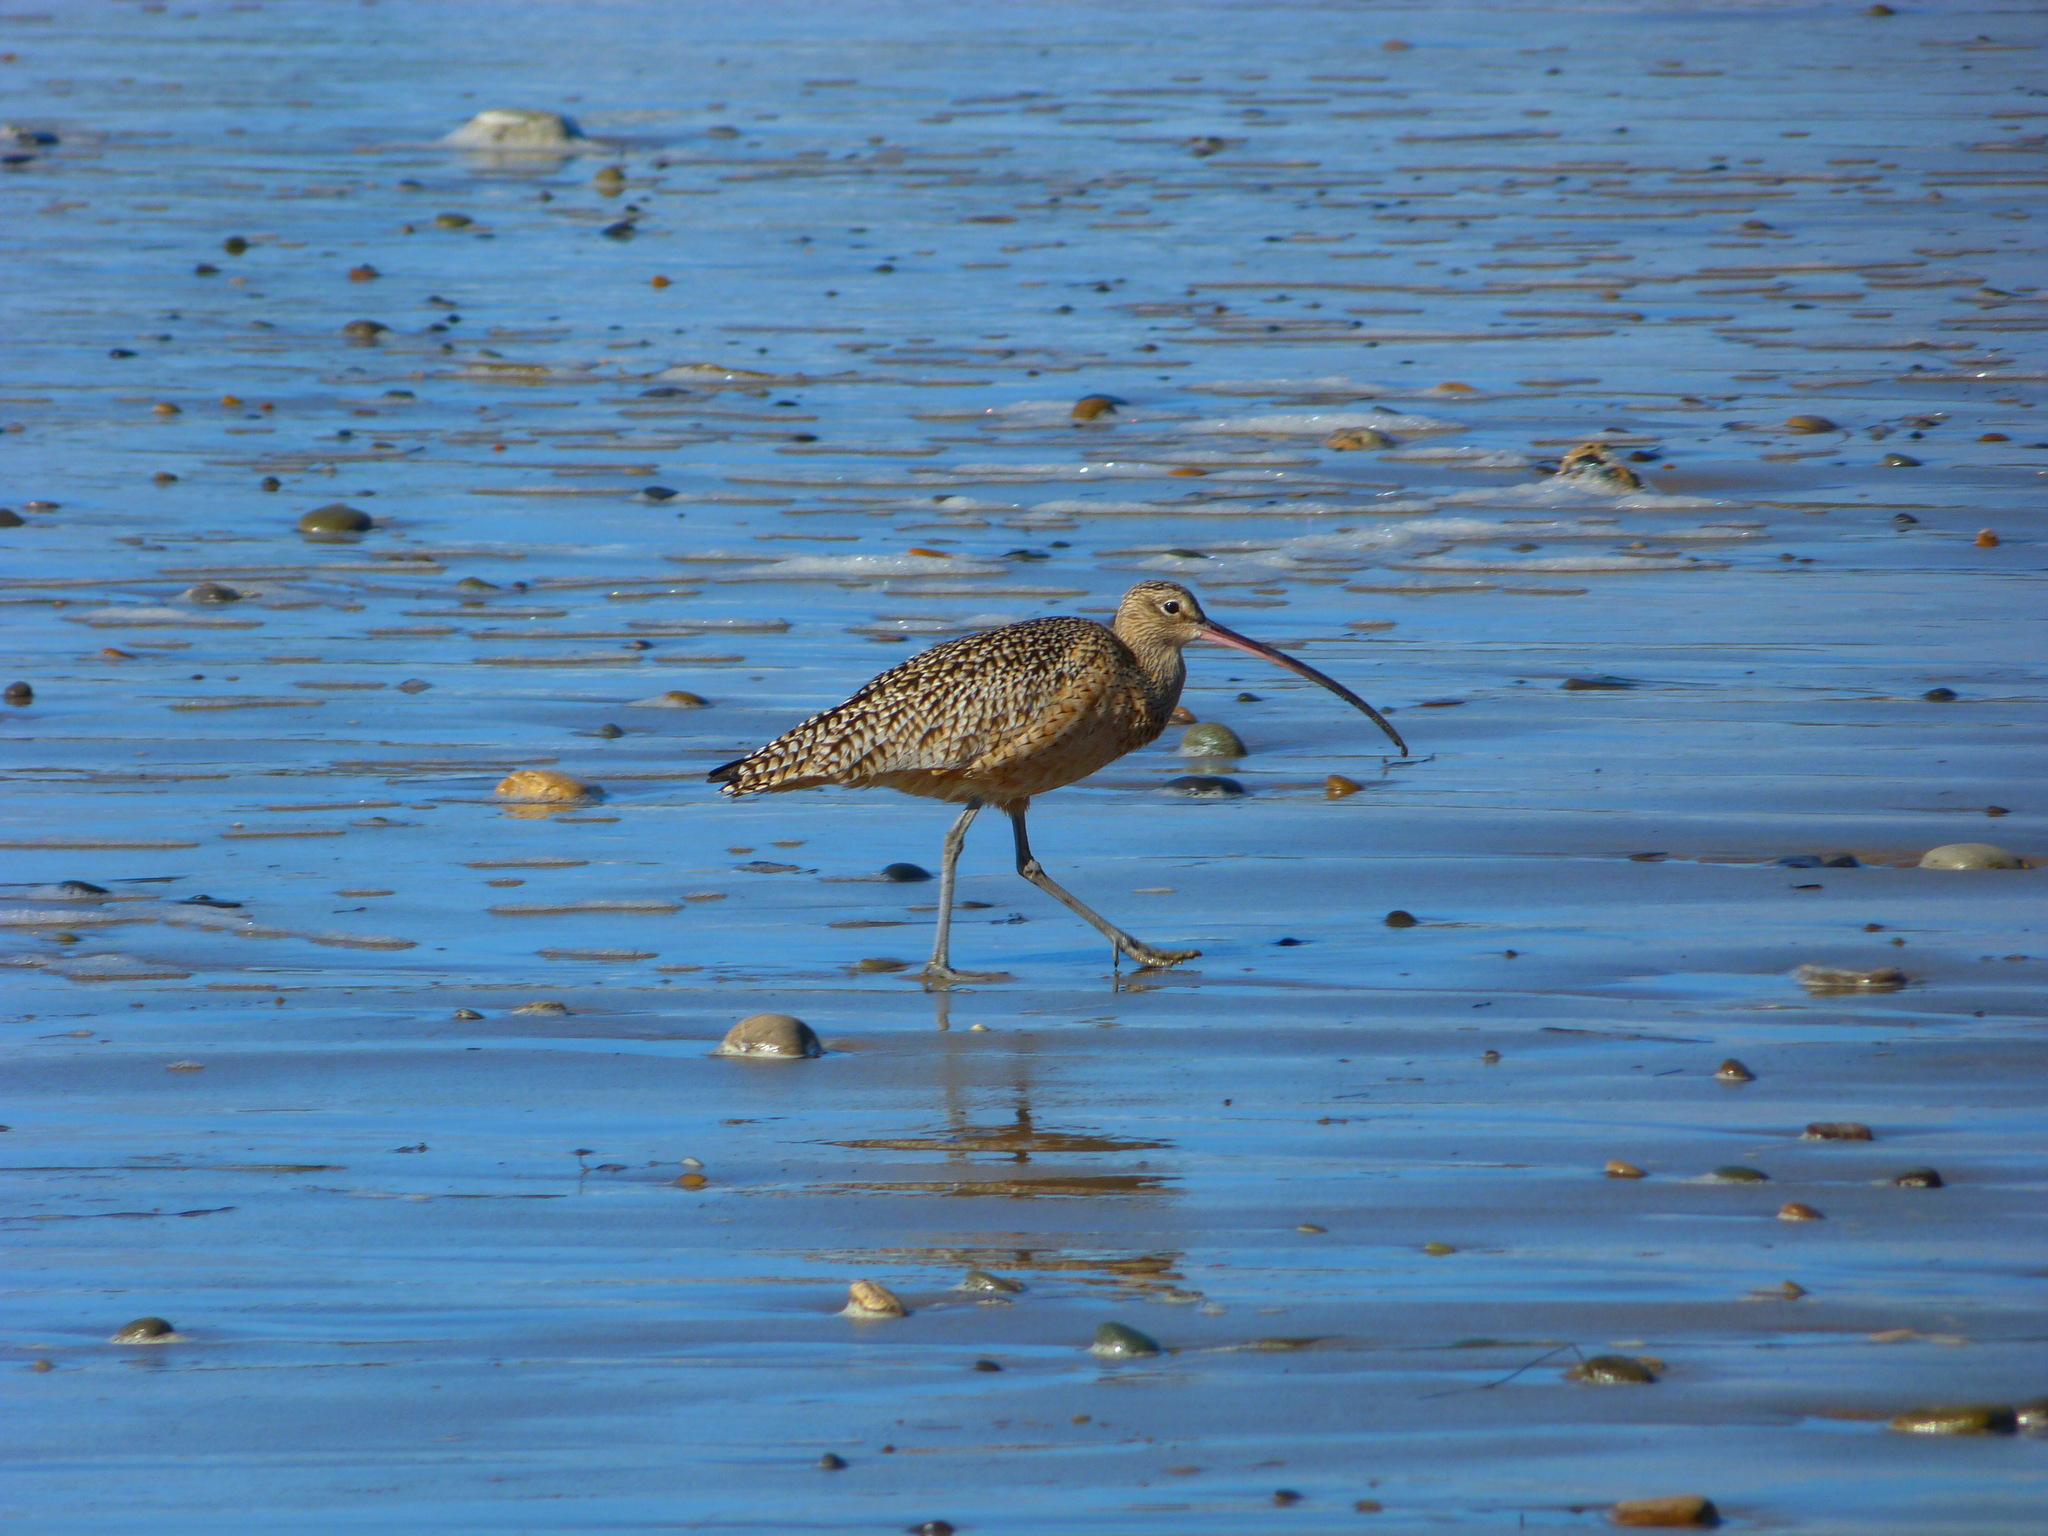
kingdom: Animalia
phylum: Chordata
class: Aves
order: Charadriiformes
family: Scolopacidae
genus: Numenius
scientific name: Numenius americanus
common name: Long-billed curlew
